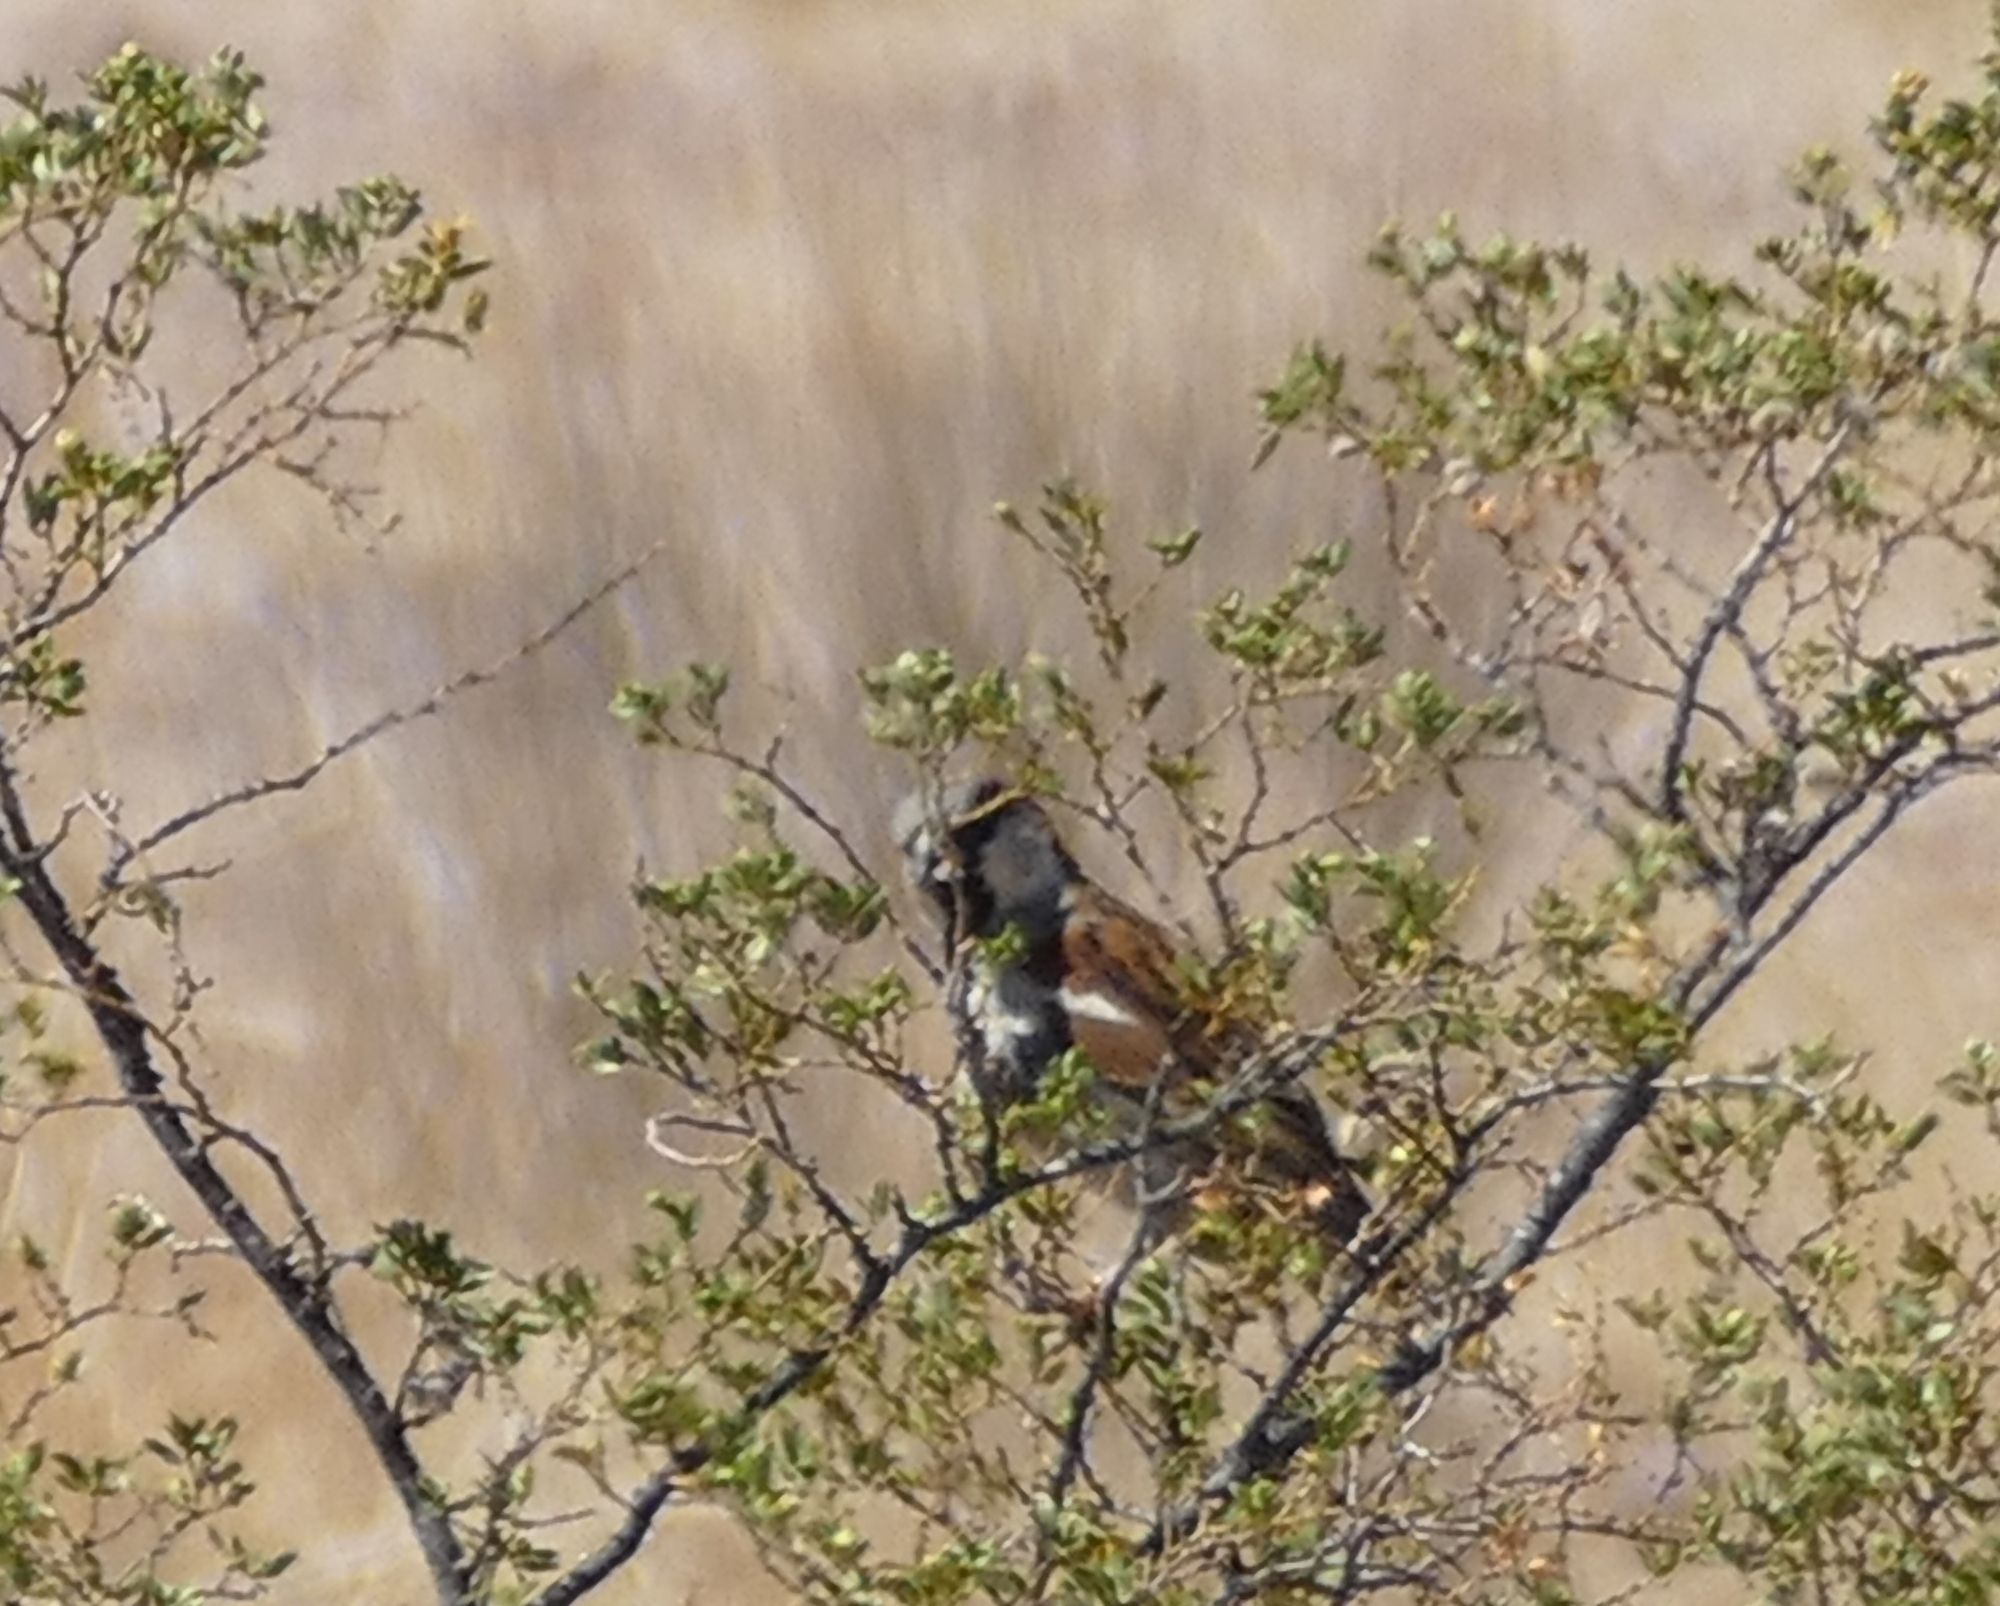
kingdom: Animalia
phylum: Chordata
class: Aves
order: Passeriformes
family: Passeridae
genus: Passer
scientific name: Passer domesticus
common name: House sparrow
